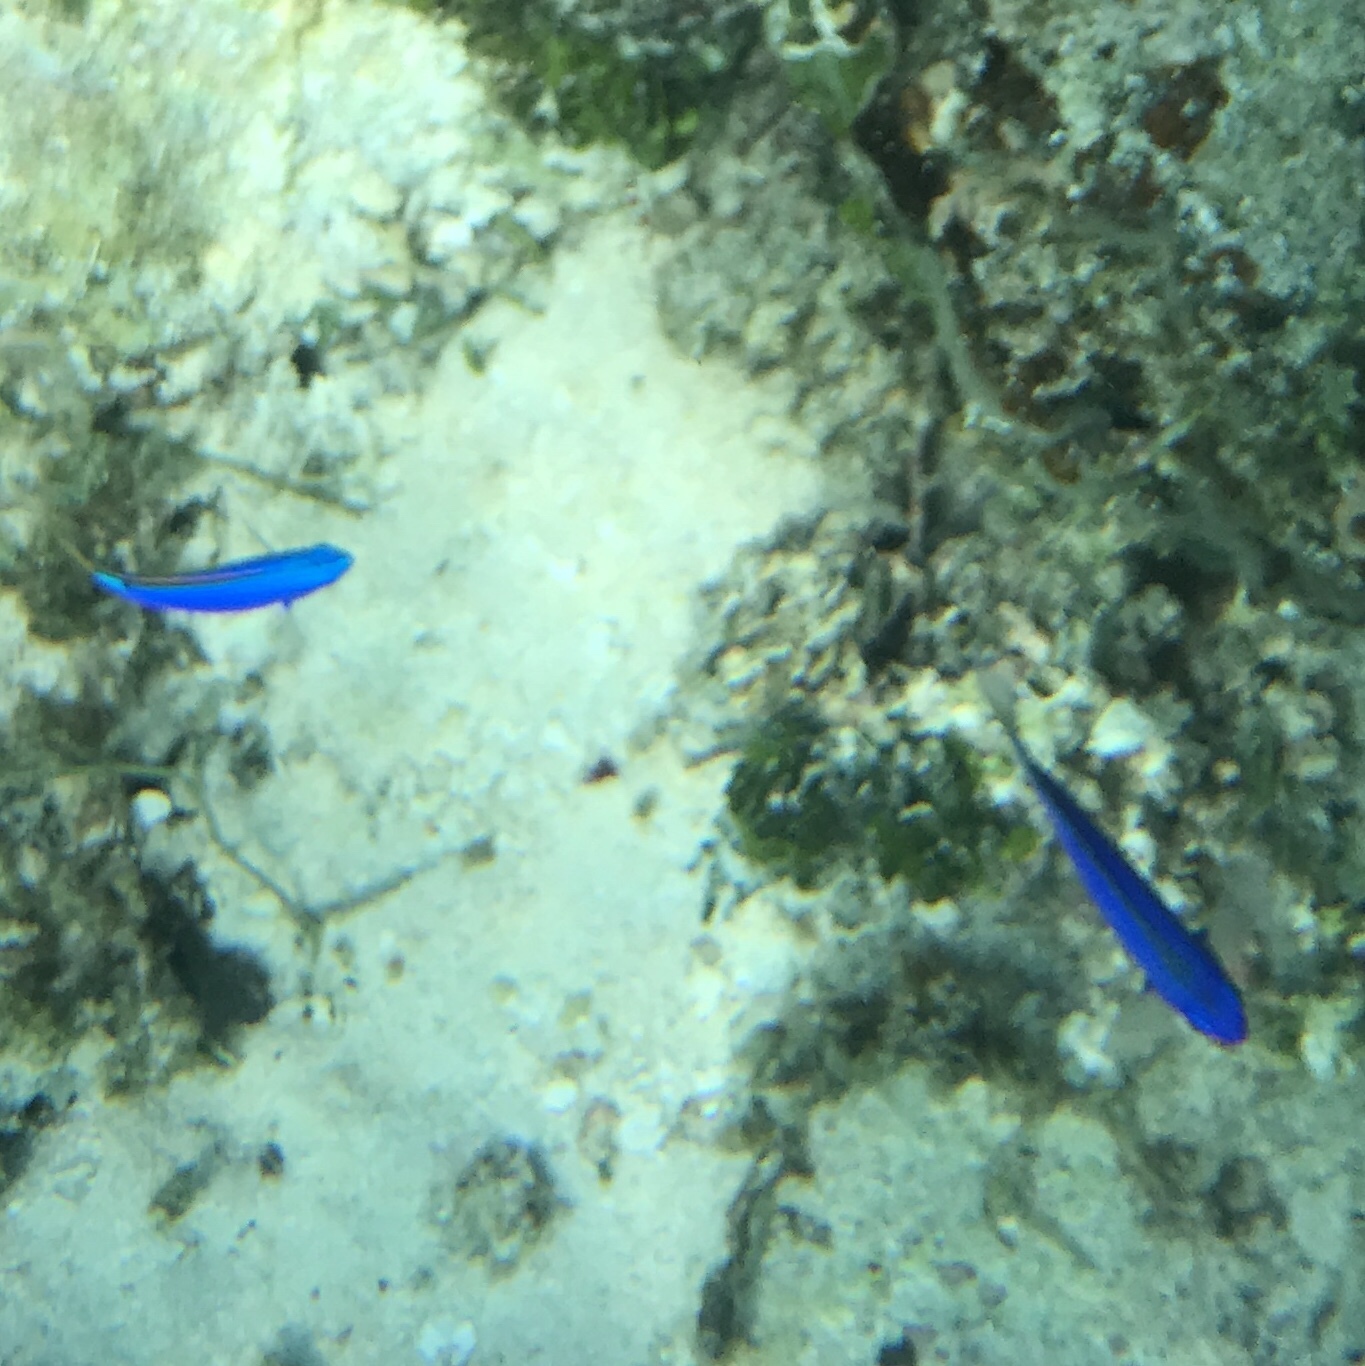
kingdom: Animalia
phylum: Chordata
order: Perciformes
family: Pomacentridae
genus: Chrysiptera
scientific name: Chrysiptera taupou
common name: Fiji damsel
